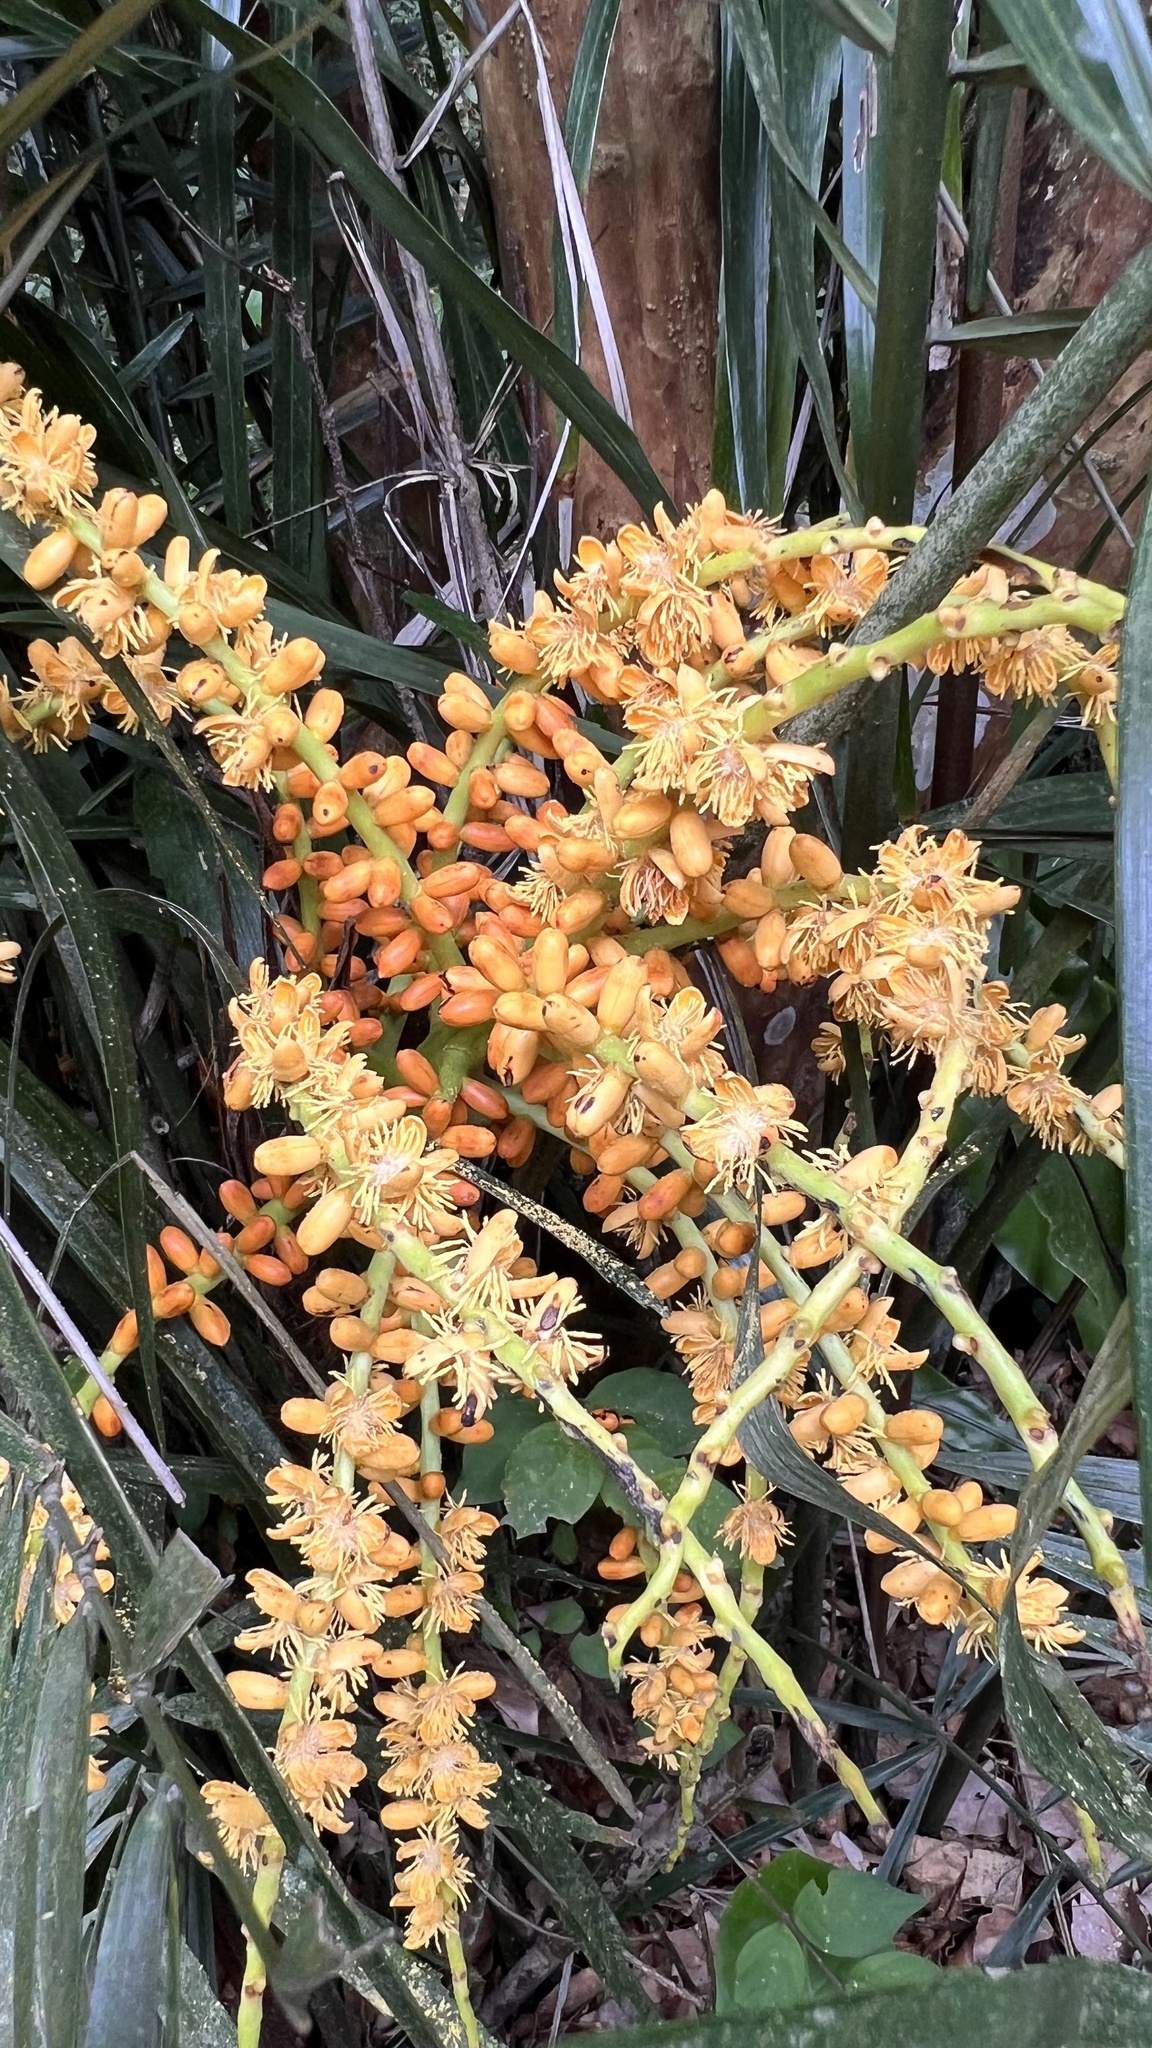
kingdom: Plantae
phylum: Tracheophyta
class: Liliopsida
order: Arecales
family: Arecaceae
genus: Arenga
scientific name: Arenga engleri
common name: Formosan sugar palm
